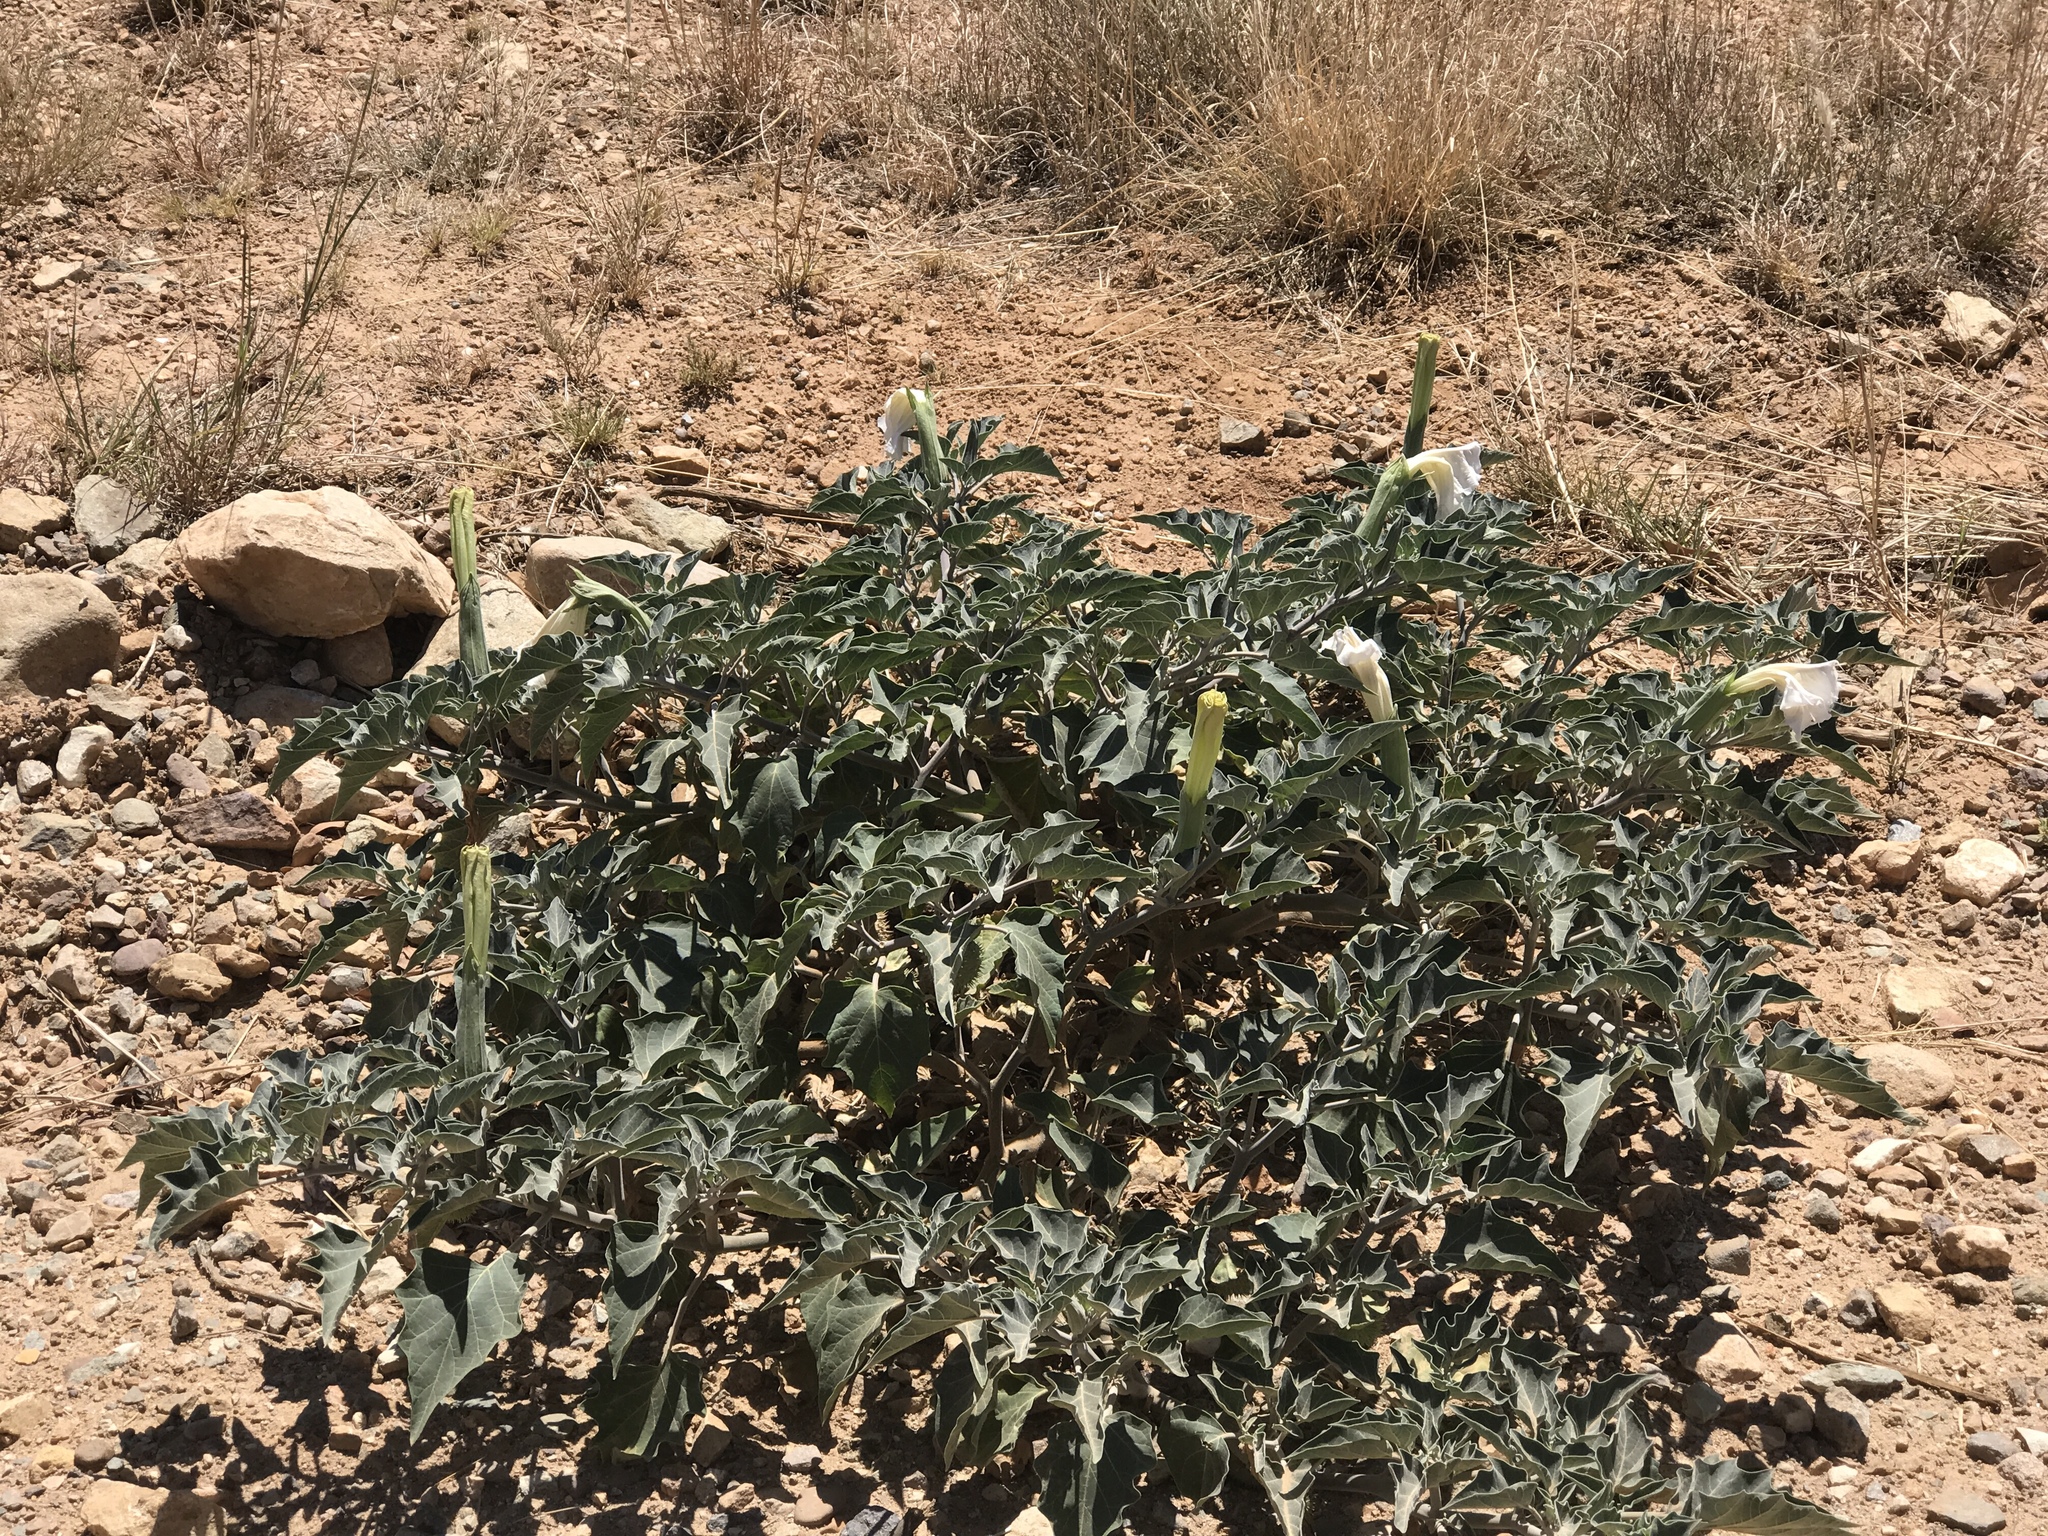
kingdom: Plantae
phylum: Tracheophyta
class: Magnoliopsida
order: Solanales
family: Solanaceae
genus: Datura
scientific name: Datura wrightii
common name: Sacred thorn-apple
